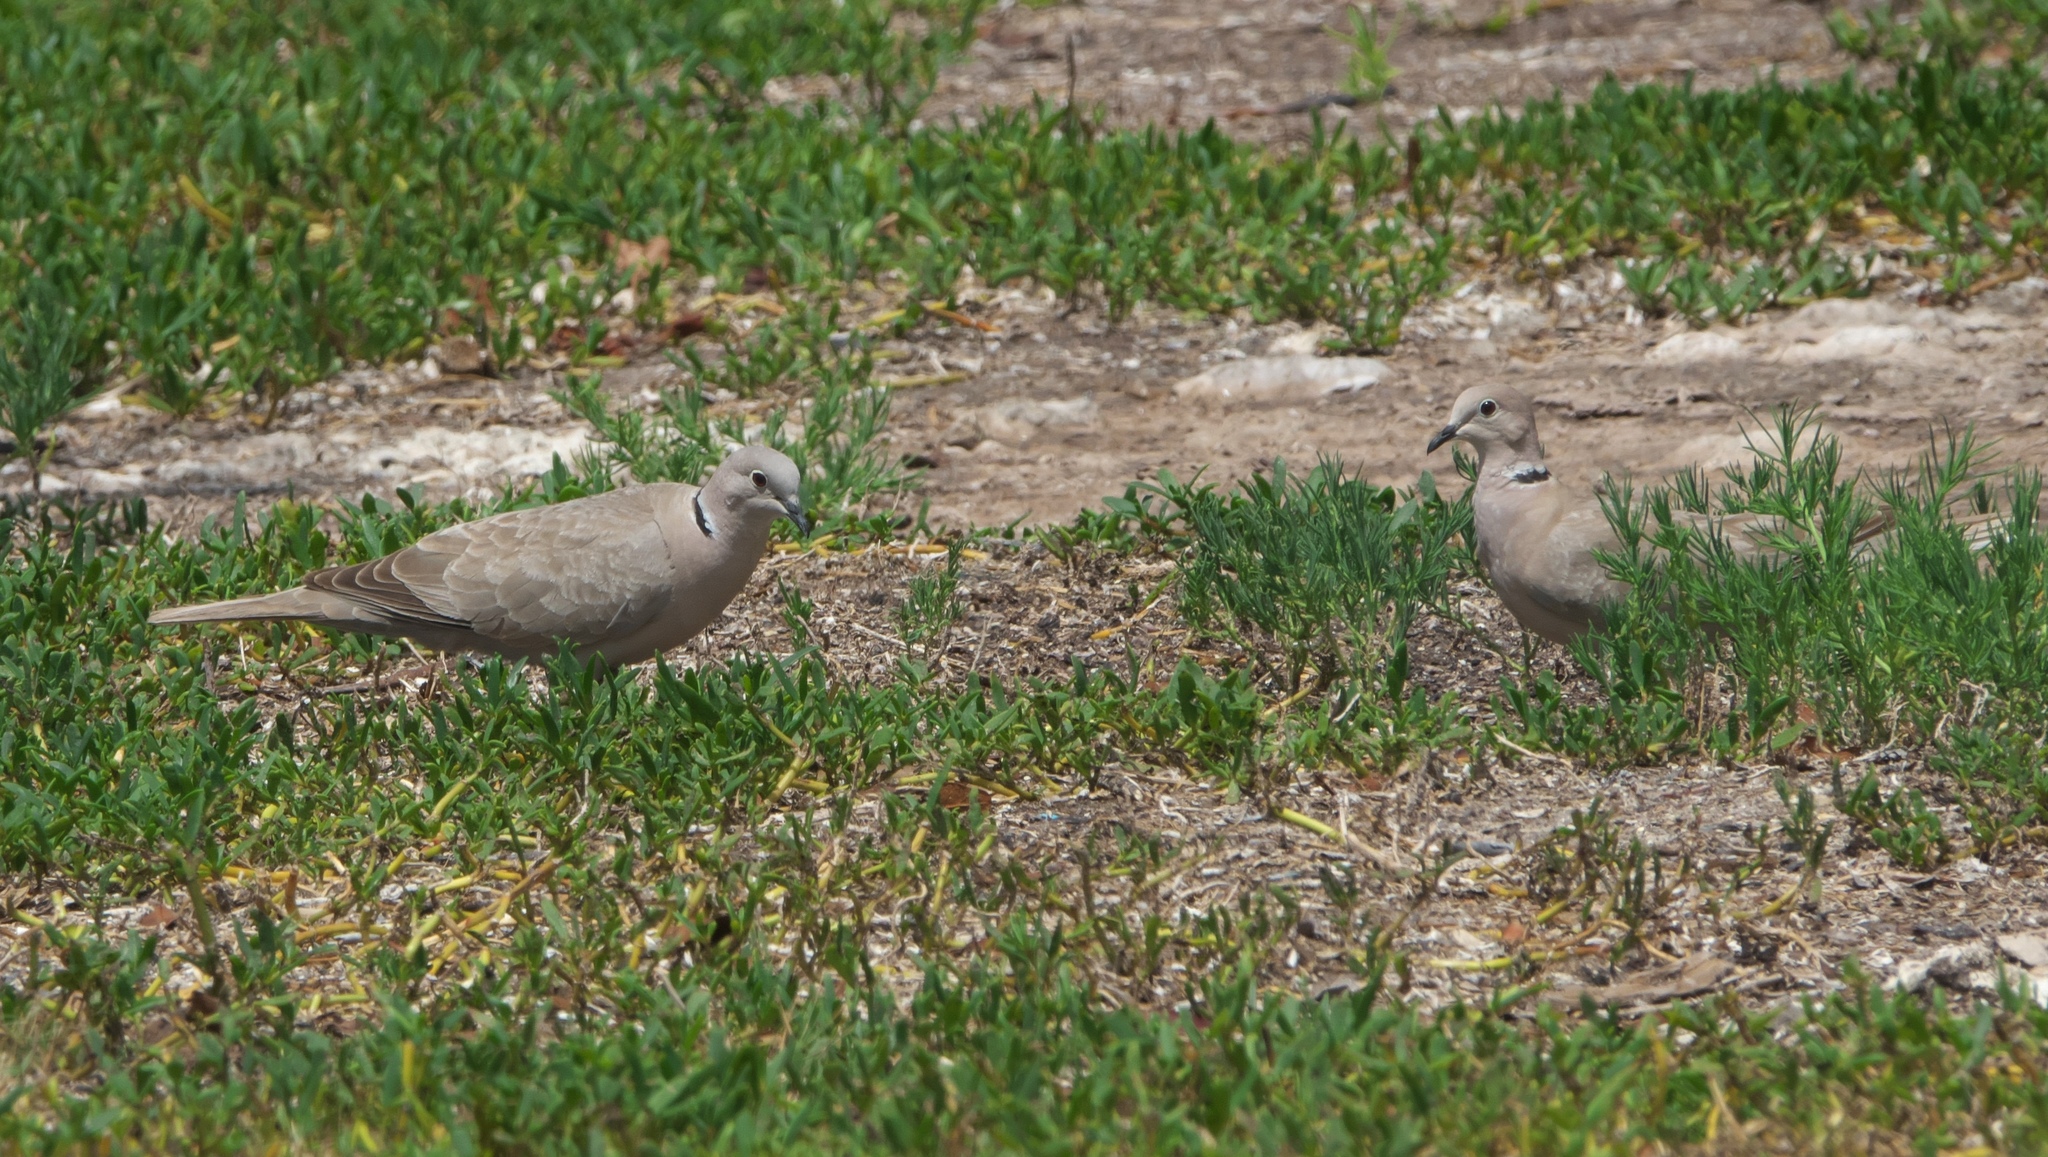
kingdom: Animalia
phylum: Chordata
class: Aves
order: Columbiformes
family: Columbidae
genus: Streptopelia
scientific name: Streptopelia decaocto
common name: Eurasian collared dove
